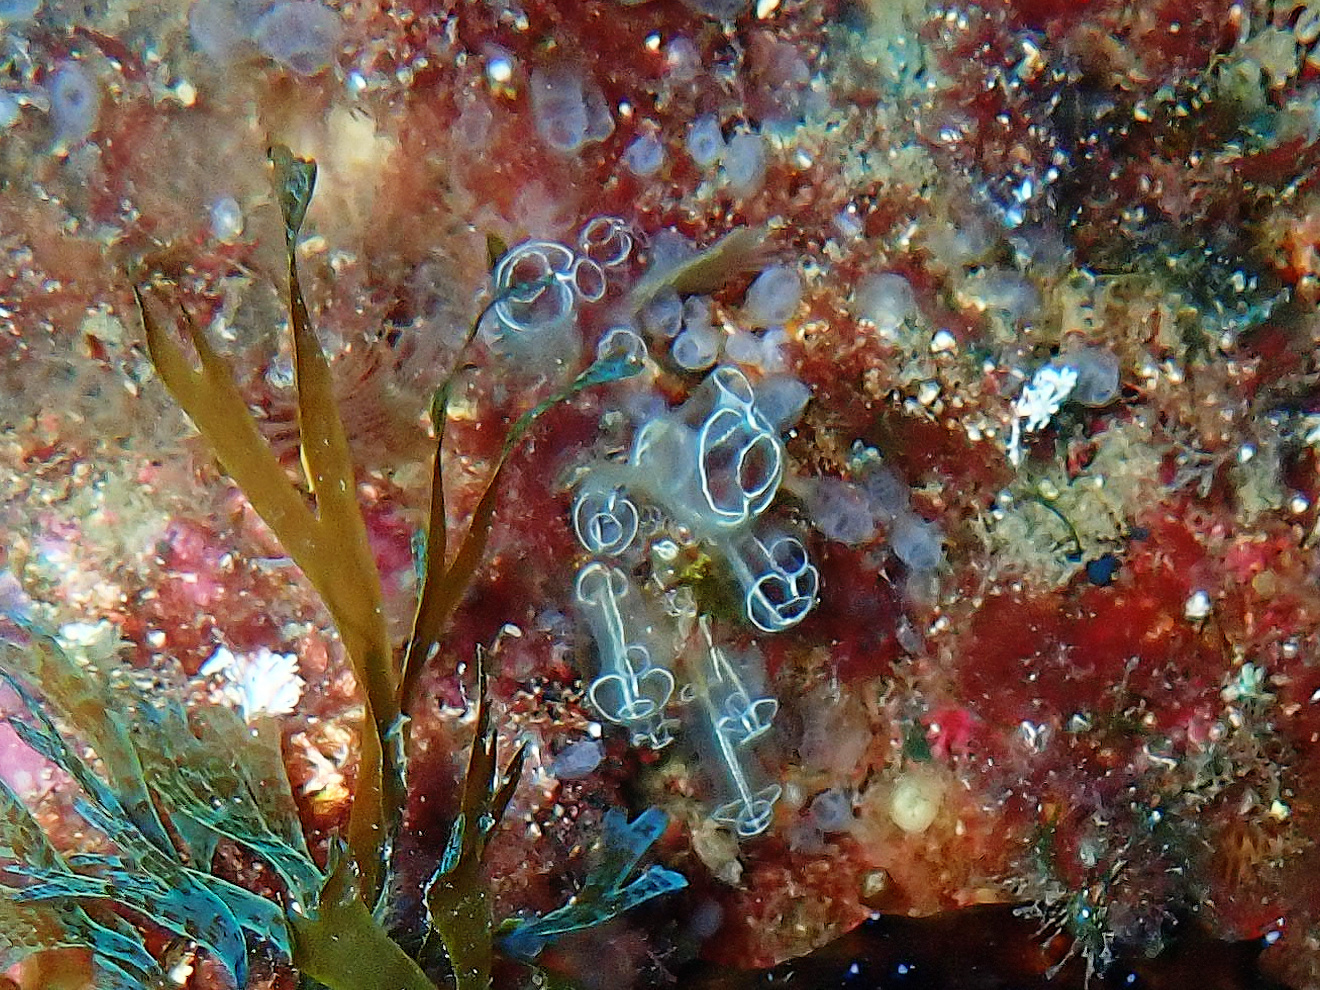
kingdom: Animalia
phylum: Chordata
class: Ascidiacea
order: Aplousobranchia
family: Clavelinidae
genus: Clavelina
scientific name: Clavelina lepadiformis
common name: Light bulb tunicate
